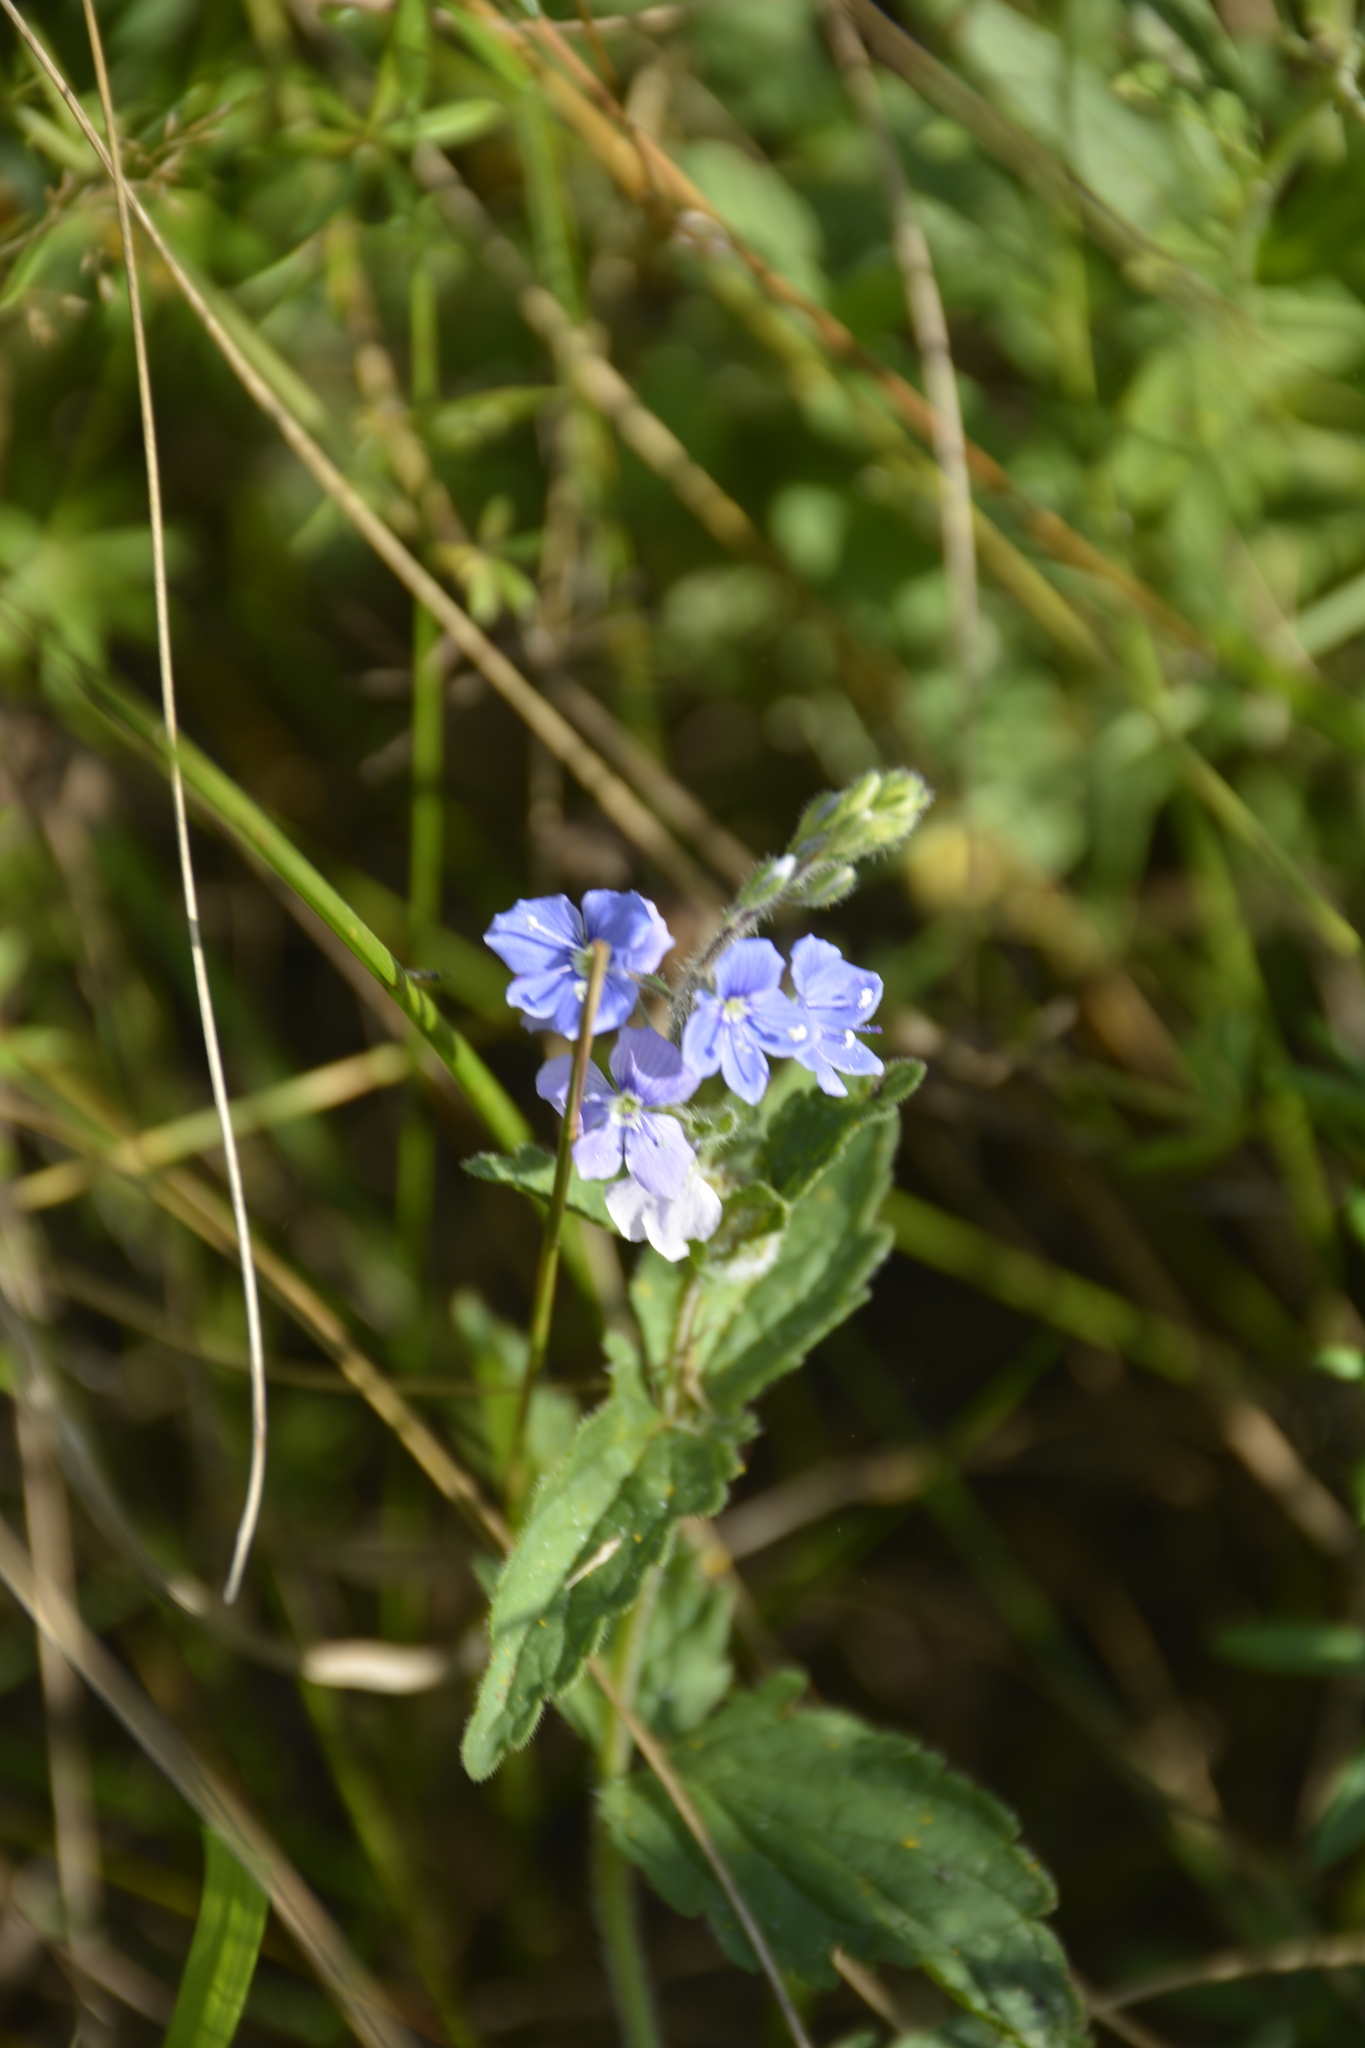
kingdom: Plantae
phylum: Tracheophyta
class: Magnoliopsida
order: Lamiales
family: Plantaginaceae
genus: Veronica
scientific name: Veronica chamaedrys
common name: Germander speedwell
